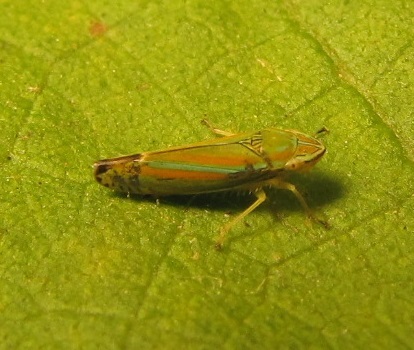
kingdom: Animalia
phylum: Arthropoda
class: Insecta
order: Hemiptera
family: Cicadellidae
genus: Graphocephala
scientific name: Graphocephala versuta
